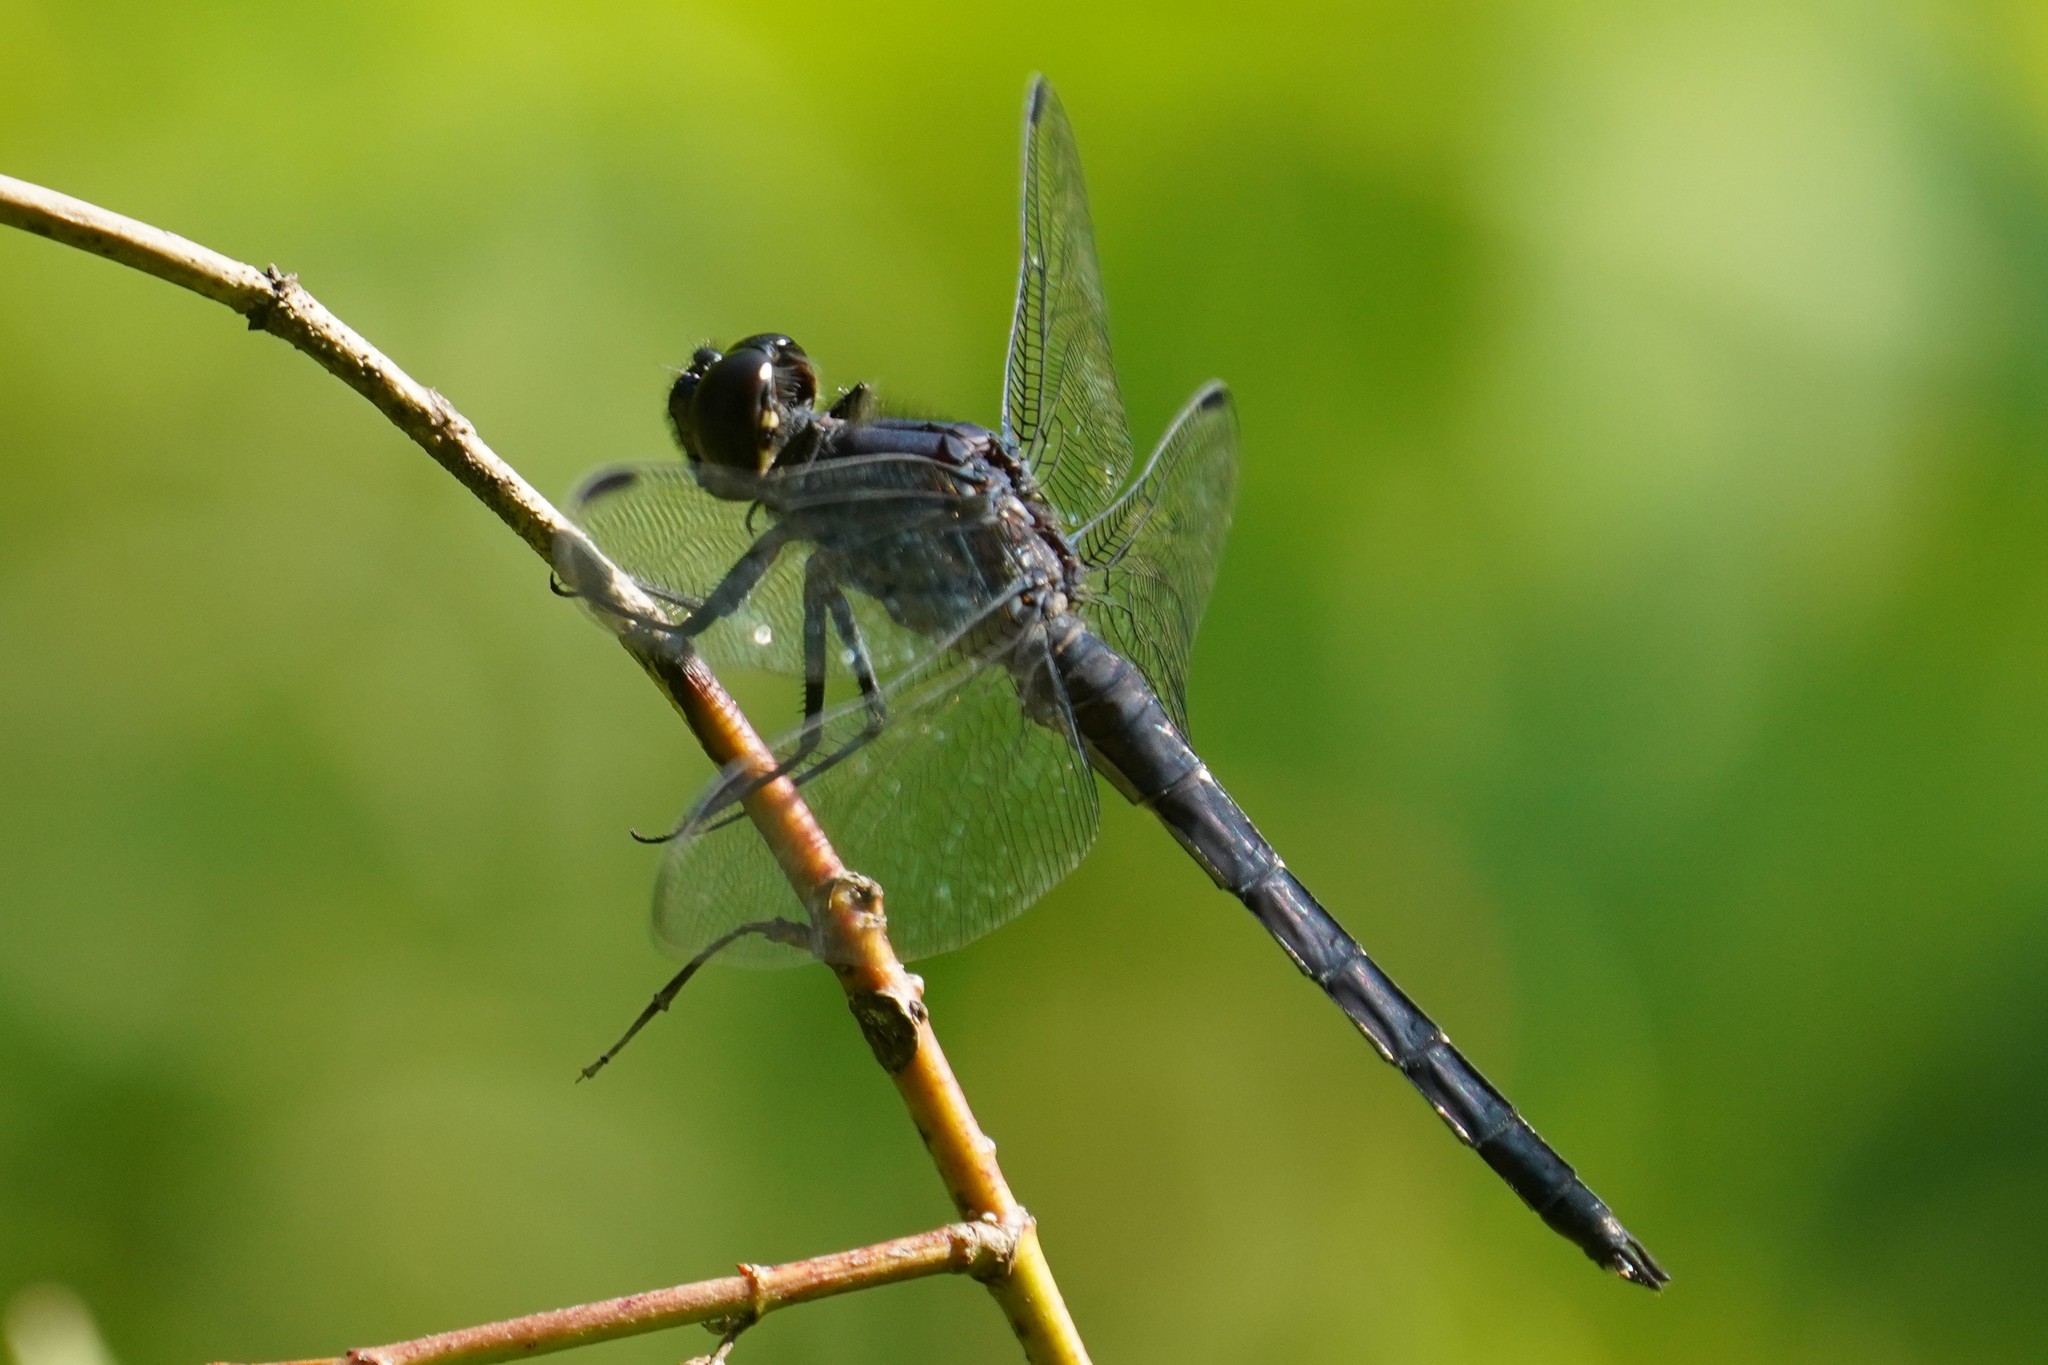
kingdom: Animalia
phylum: Arthropoda
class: Insecta
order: Odonata
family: Libellulidae
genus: Libellula
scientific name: Libellula incesta
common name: Slaty skimmer
